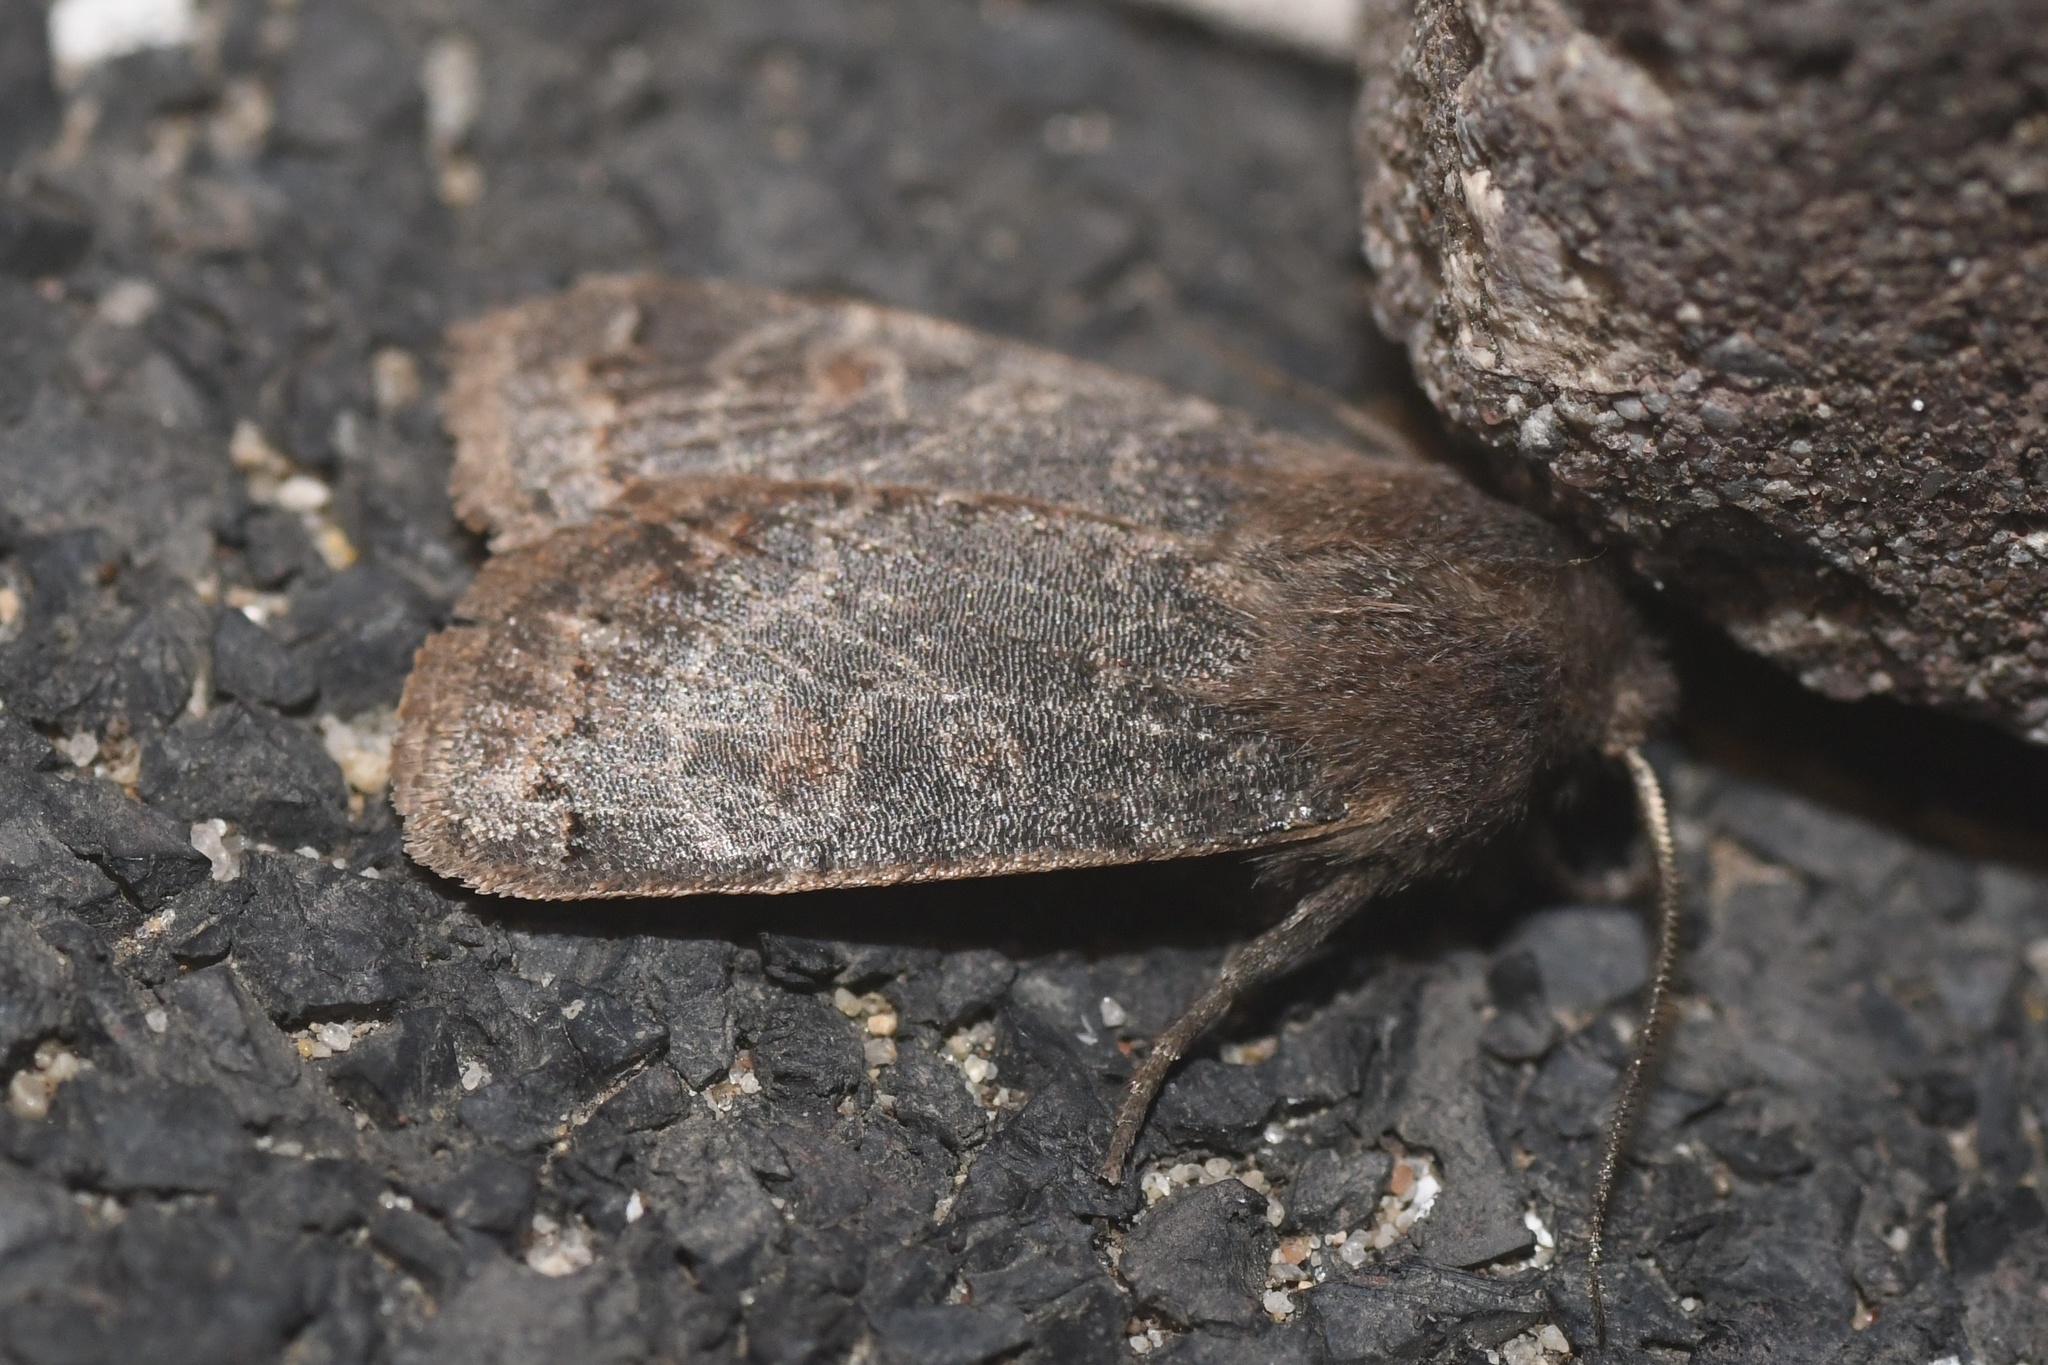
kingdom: Animalia
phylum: Arthropoda
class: Insecta
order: Lepidoptera
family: Noctuidae
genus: Homoglaea
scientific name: Homoglaea hircina
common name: Goat sallow
